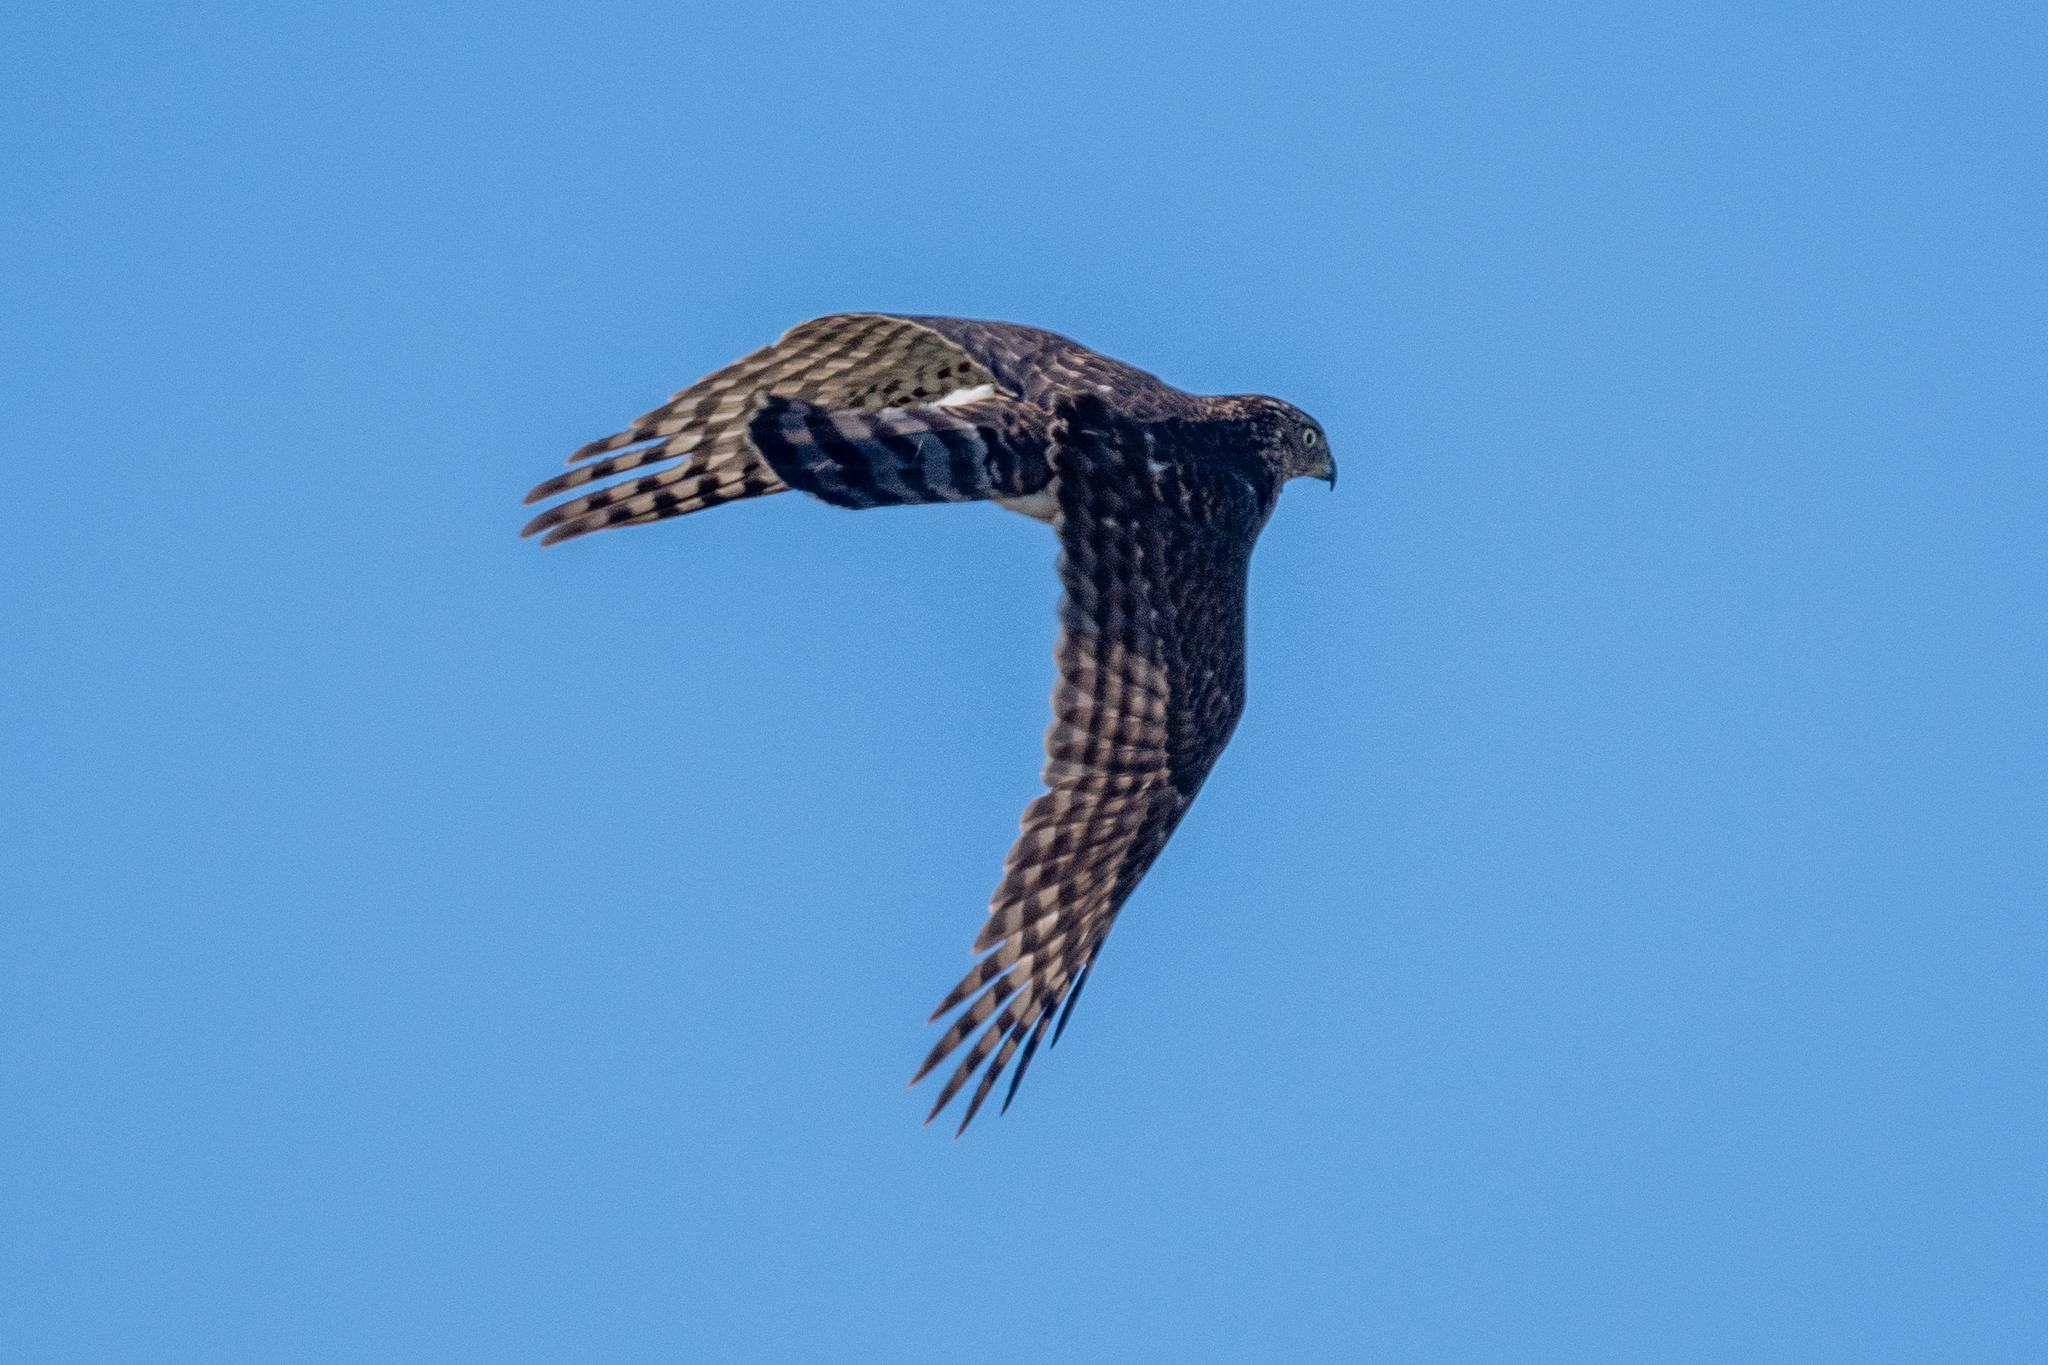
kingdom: Animalia
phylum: Chordata
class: Aves
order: Accipitriformes
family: Accipitridae
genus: Accipiter
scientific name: Accipiter cooperii
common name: Cooper's hawk
